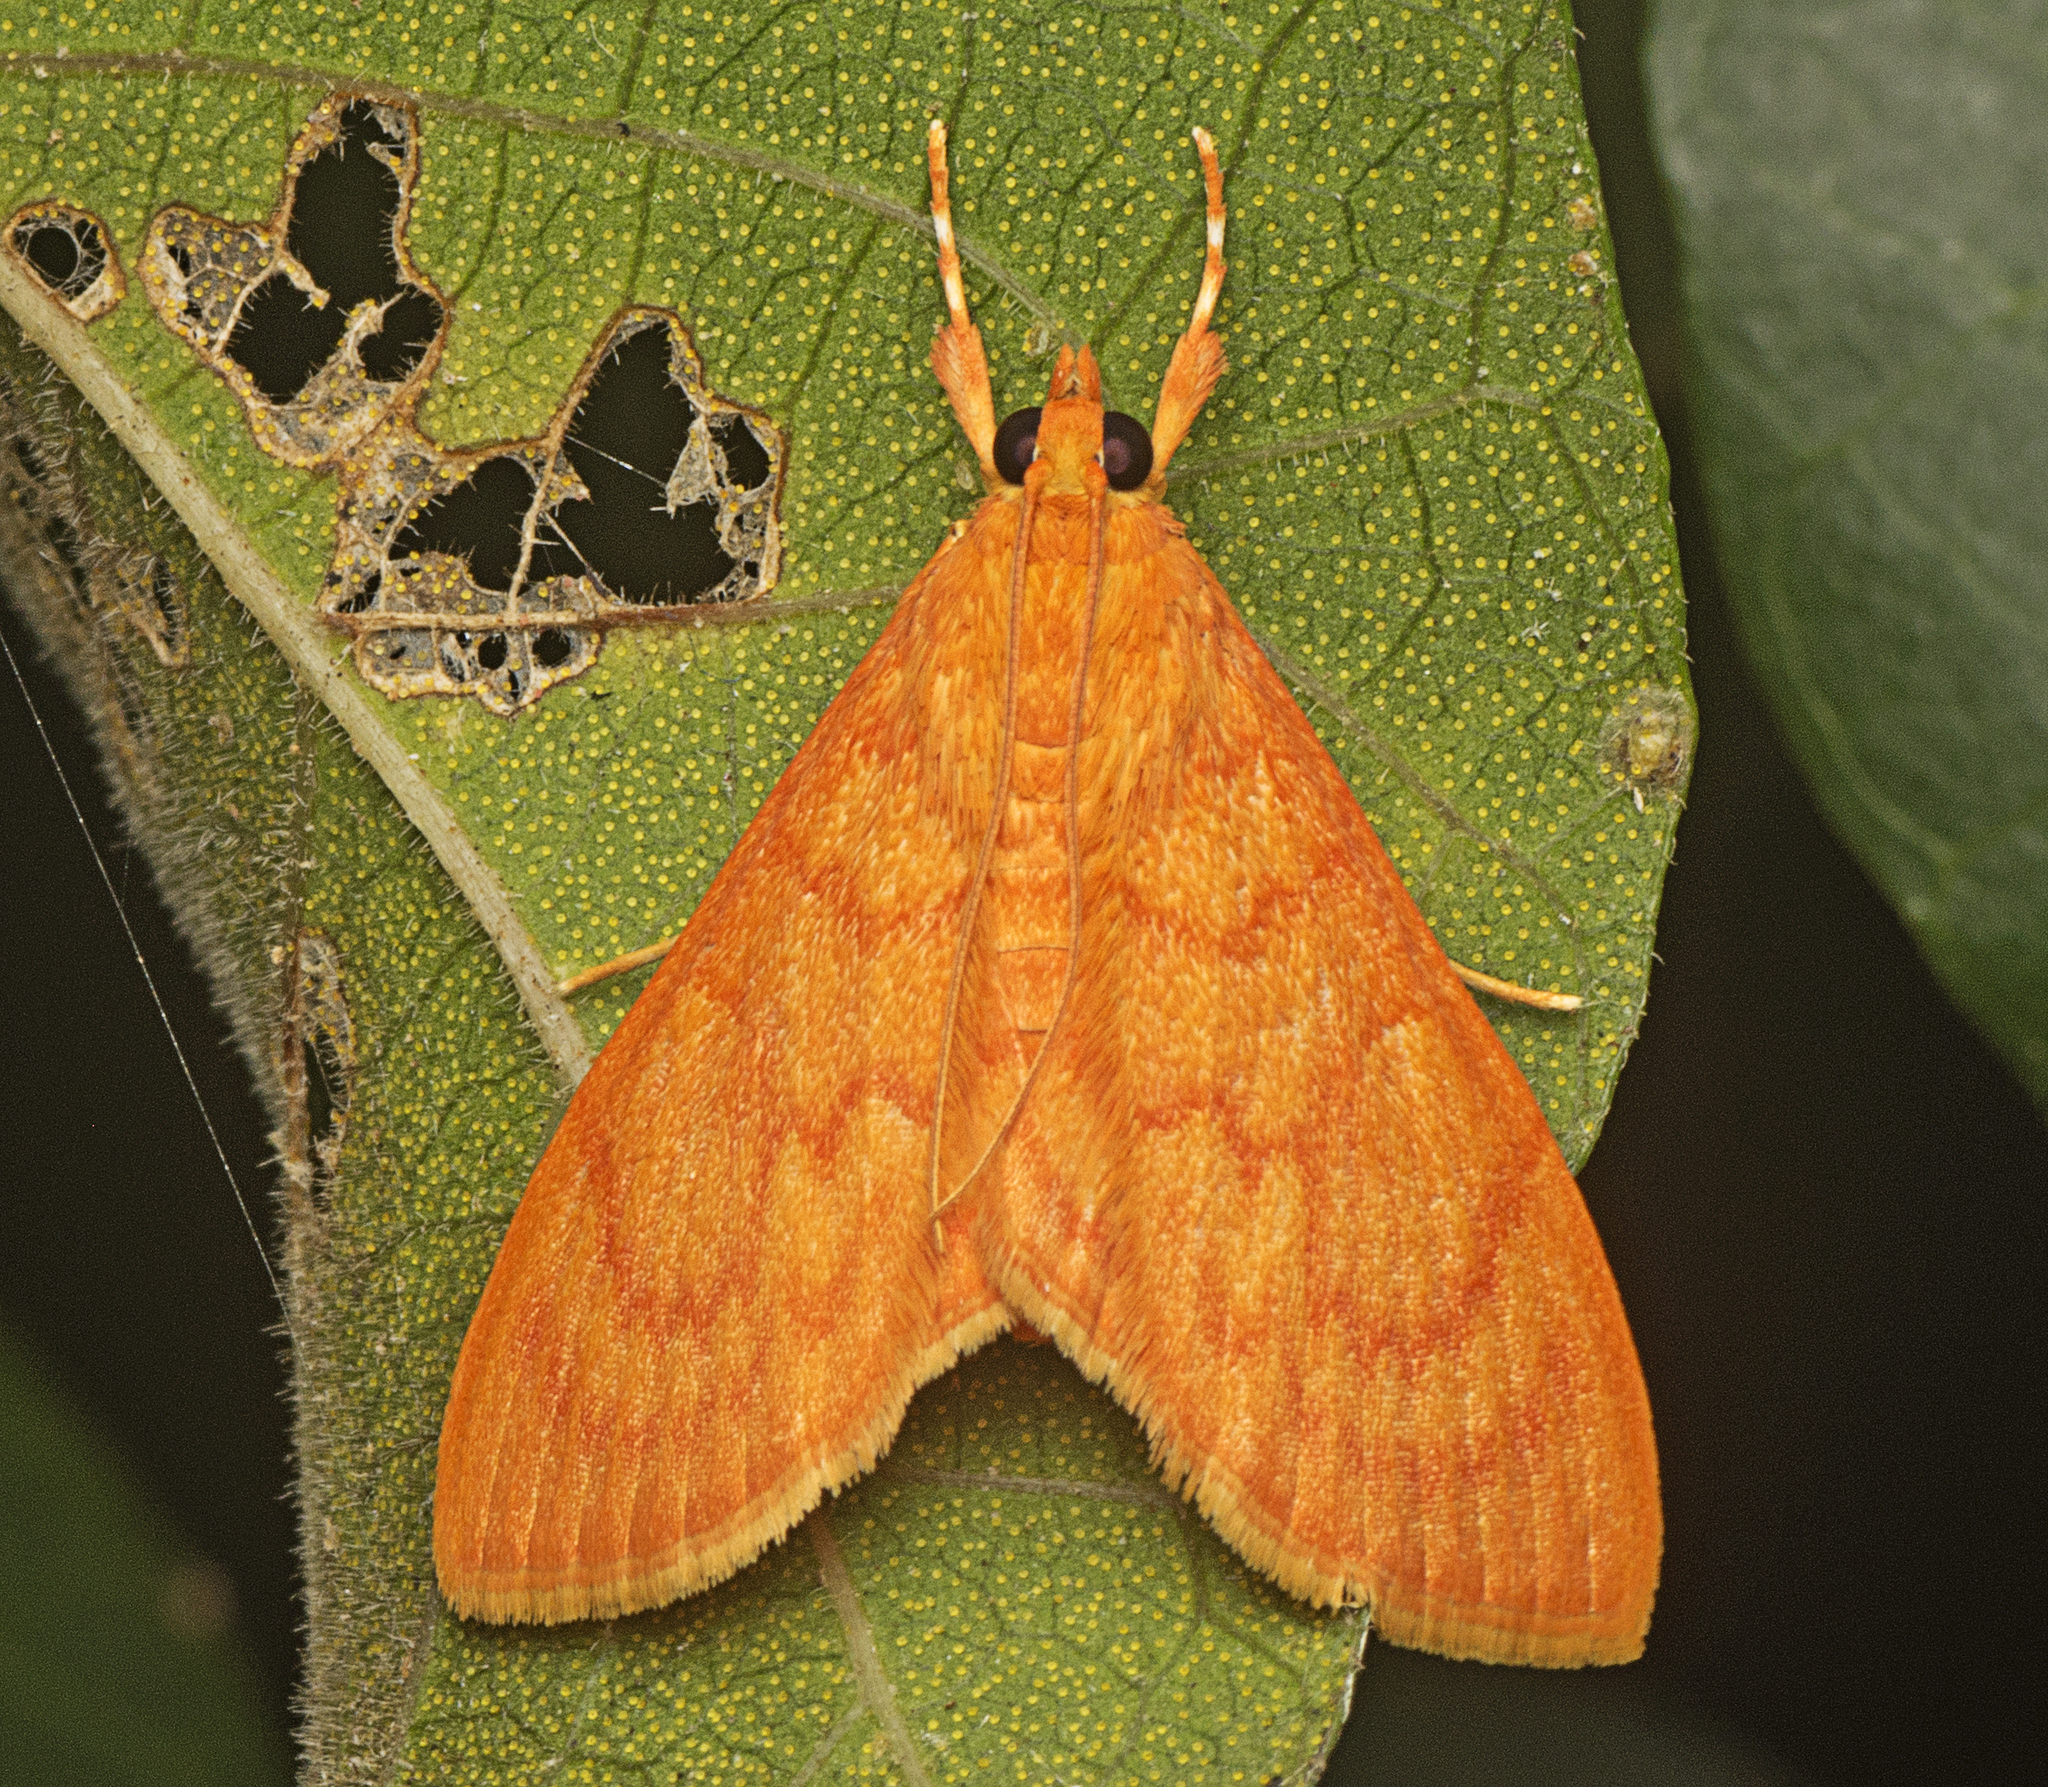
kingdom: Animalia
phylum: Arthropoda
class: Insecta
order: Lepidoptera
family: Crambidae
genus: Hyalobathra
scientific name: Hyalobathra minialis
